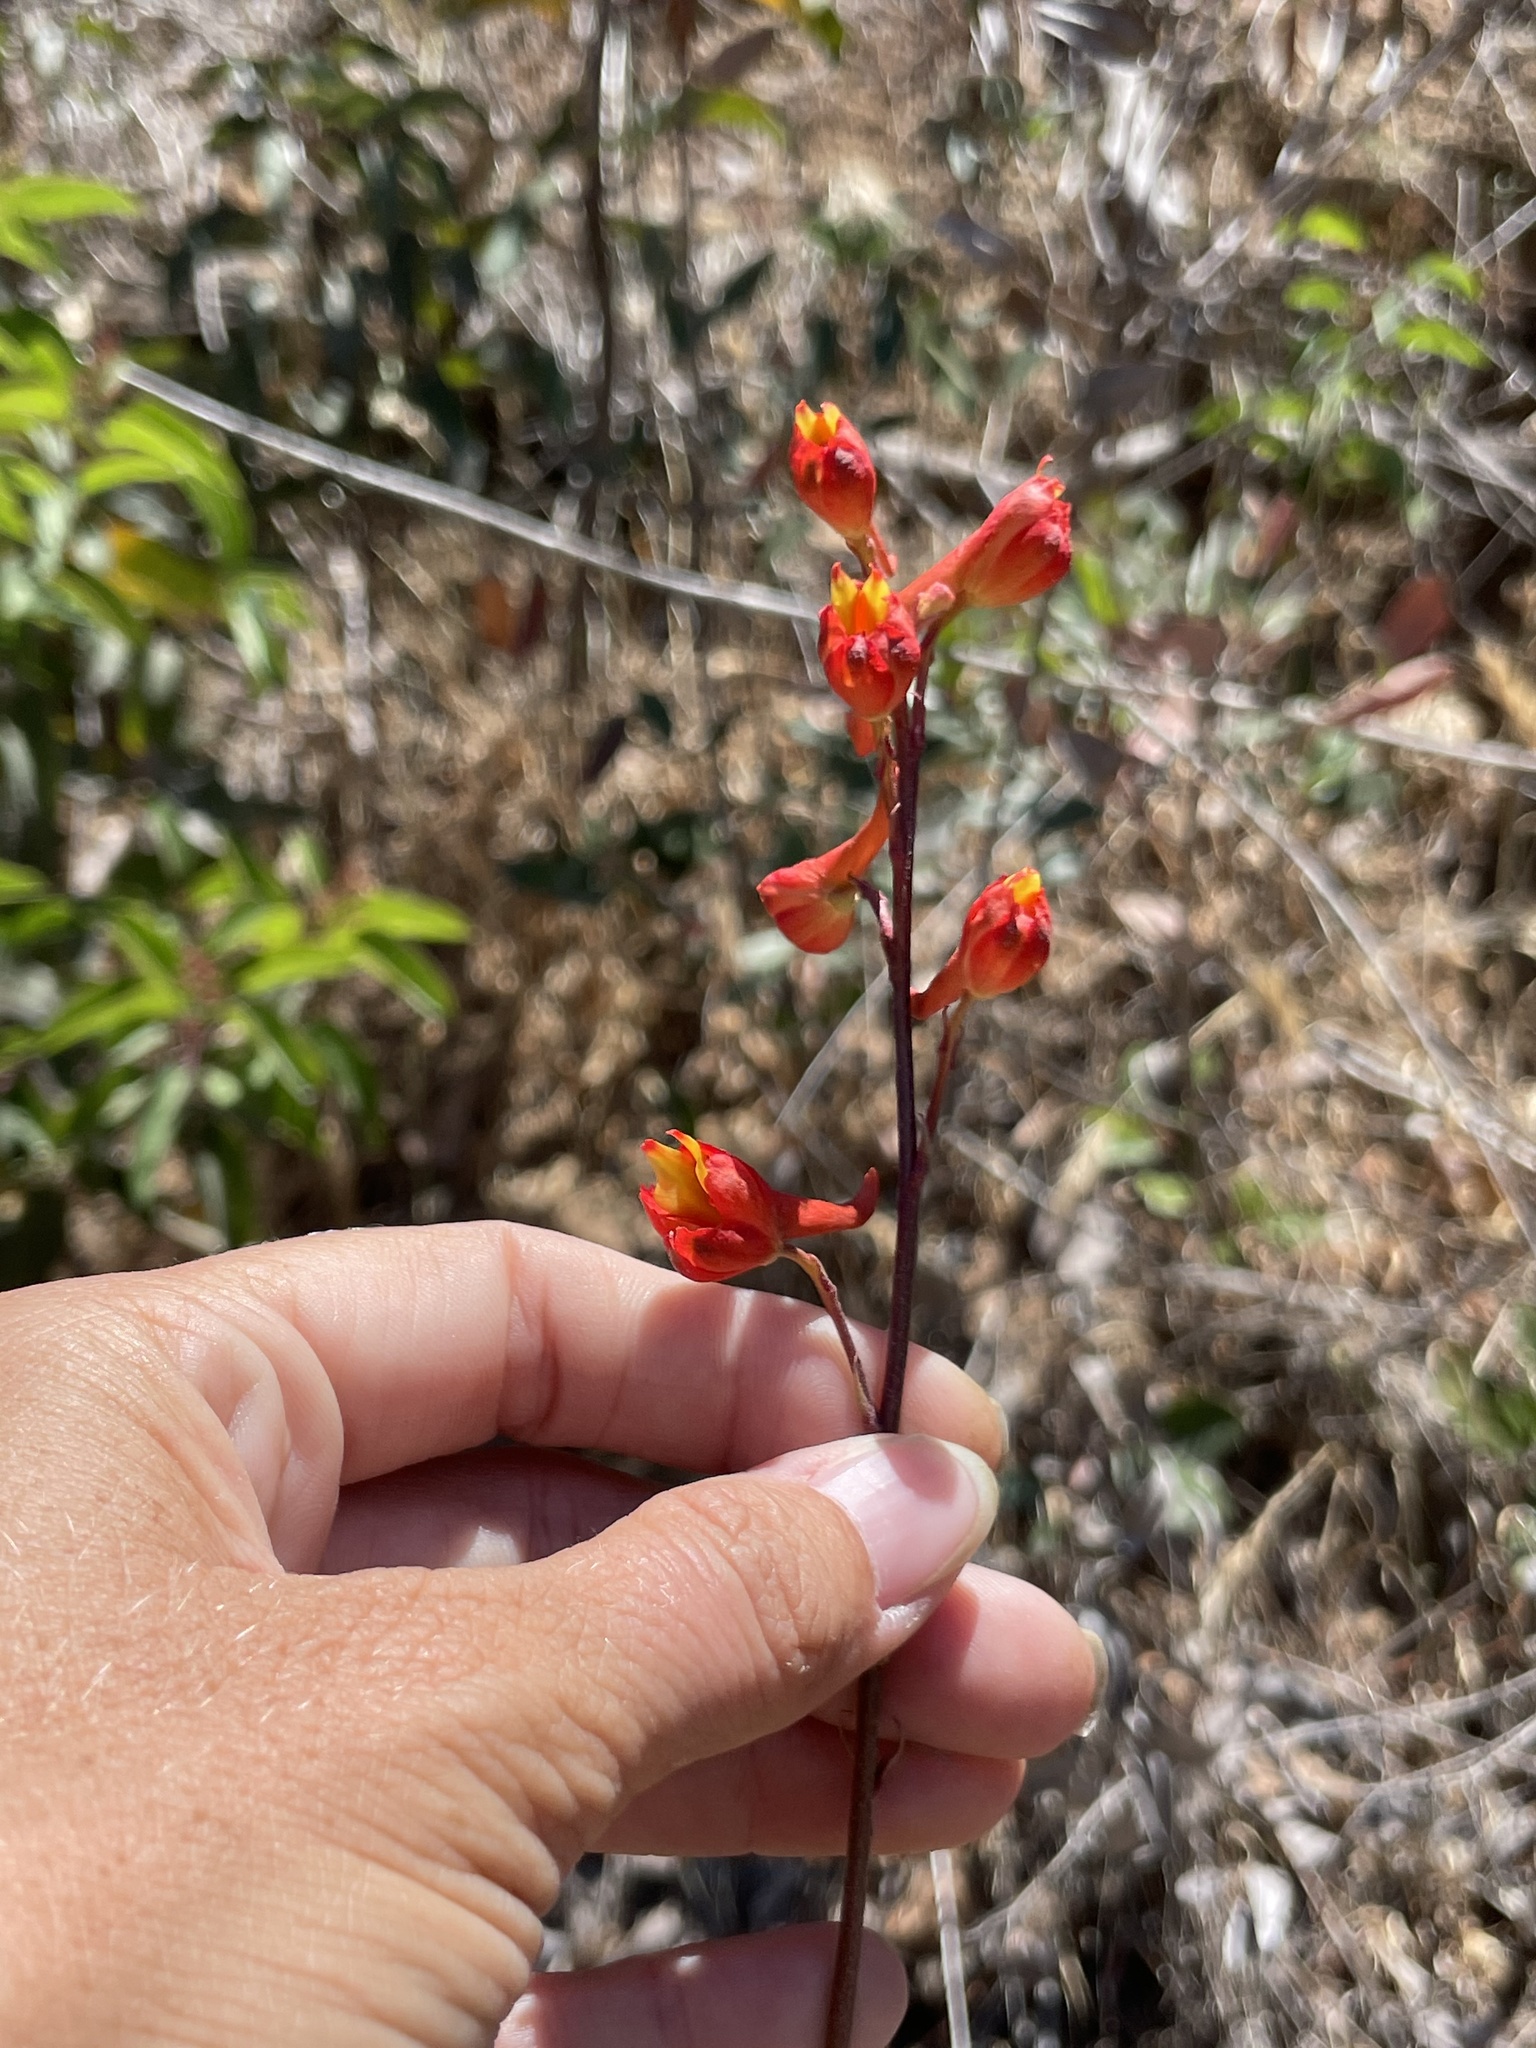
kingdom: Plantae
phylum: Tracheophyta
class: Magnoliopsida
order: Ranunculales
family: Ranunculaceae
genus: Delphinium
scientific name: Delphinium cardinale
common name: Scarlet larkspur
